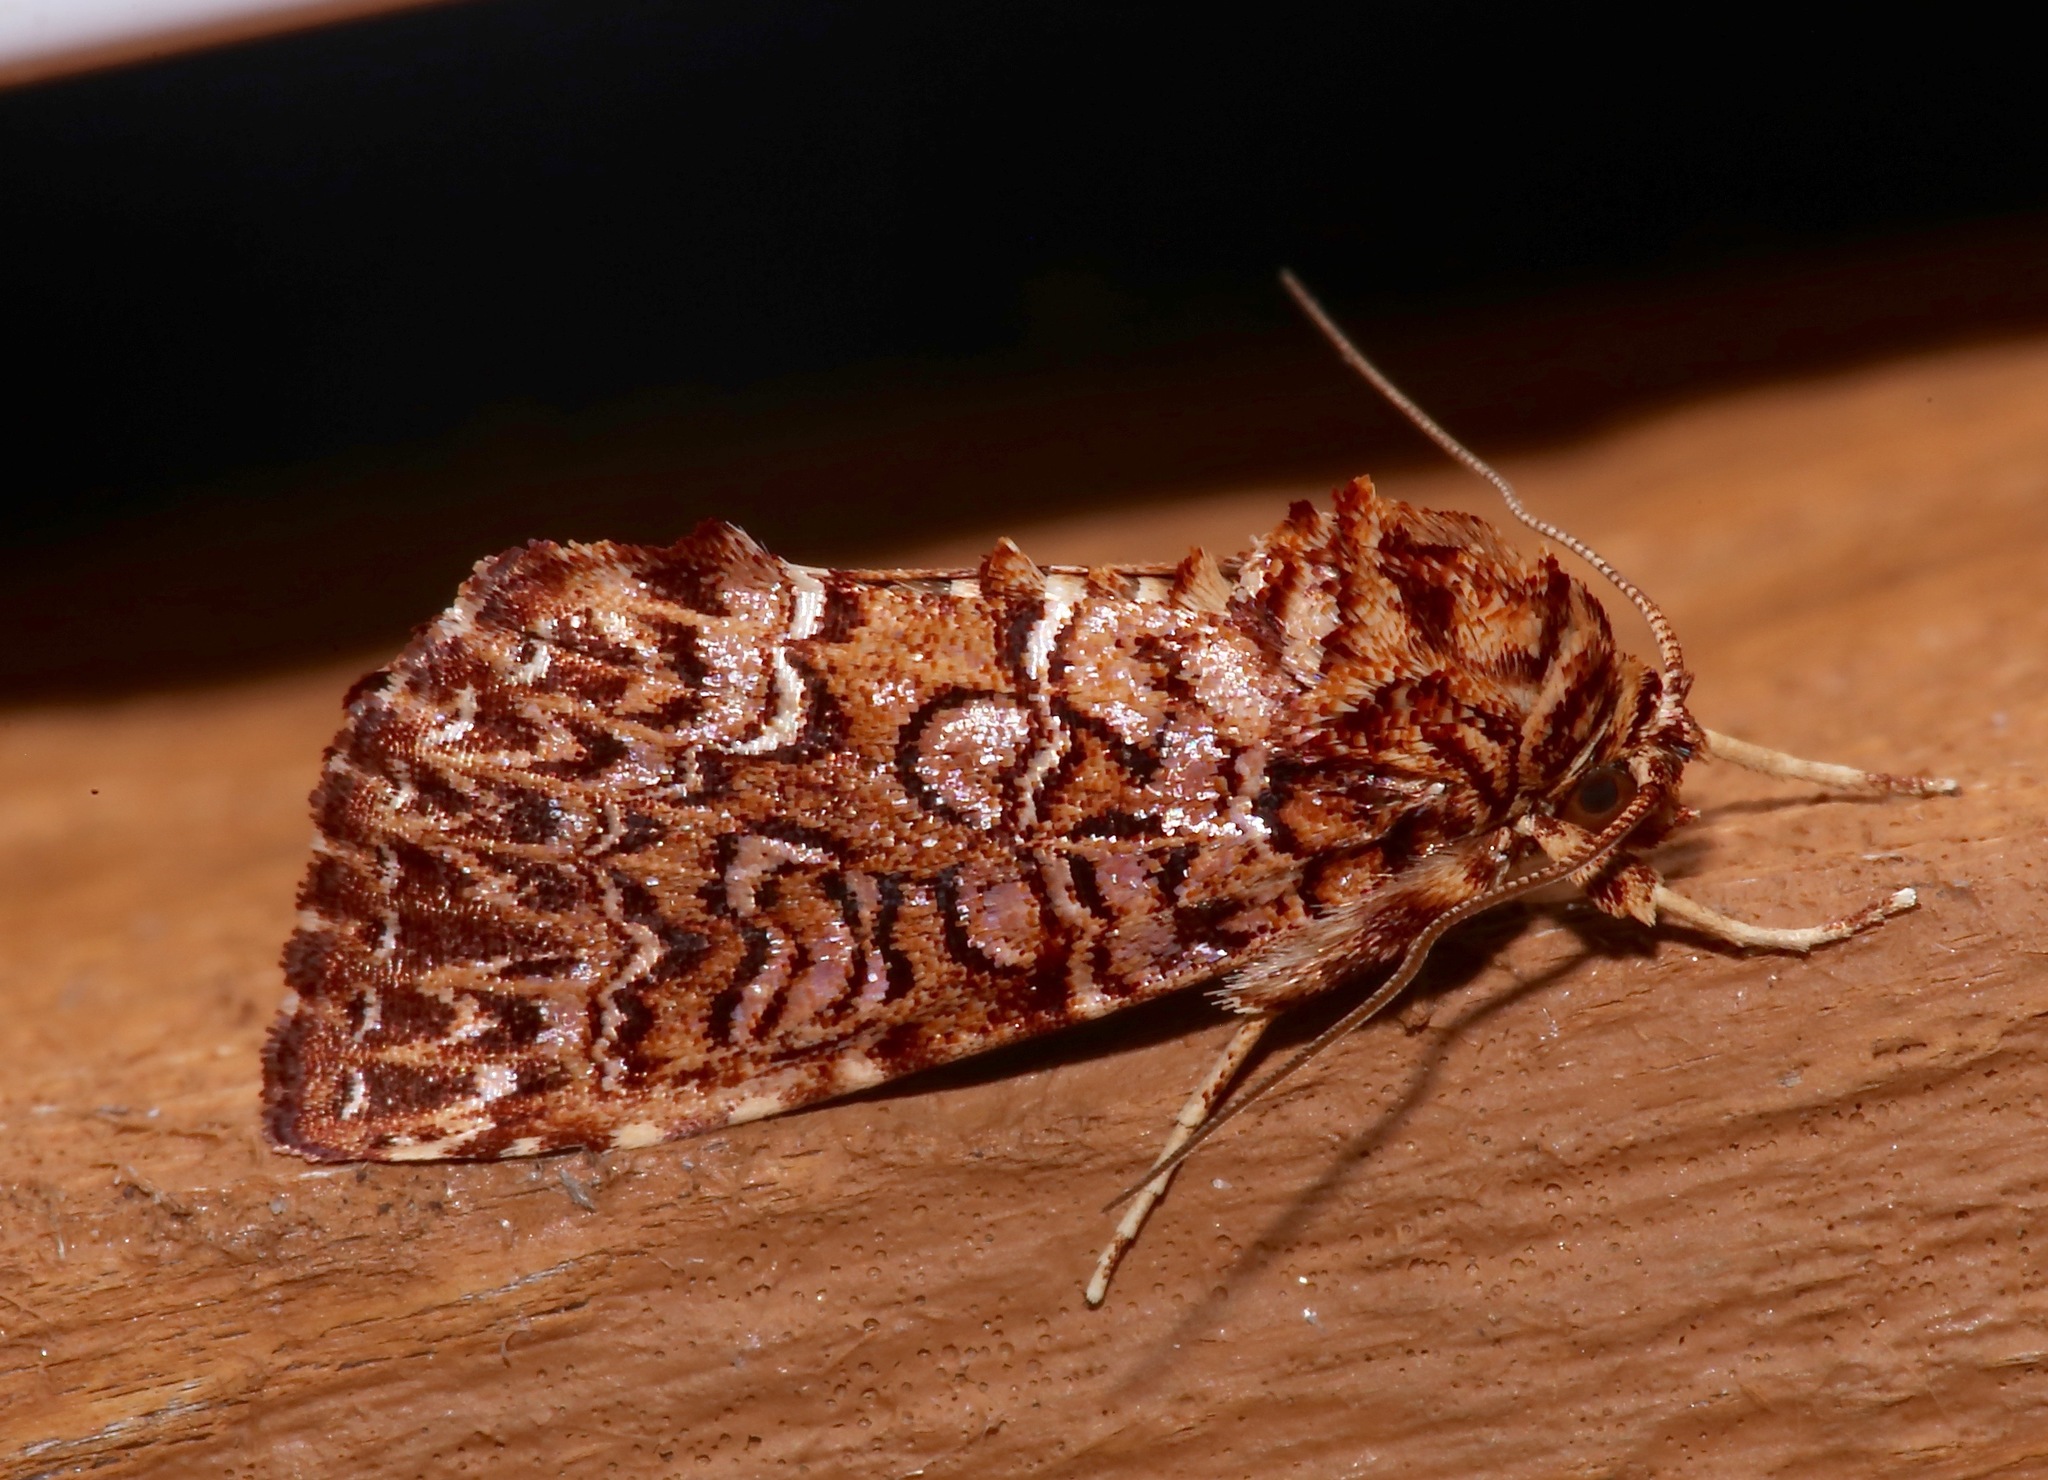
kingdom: Animalia
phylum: Arthropoda
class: Insecta
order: Lepidoptera
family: Noctuidae
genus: Callopistria
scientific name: Callopistria granitosa
